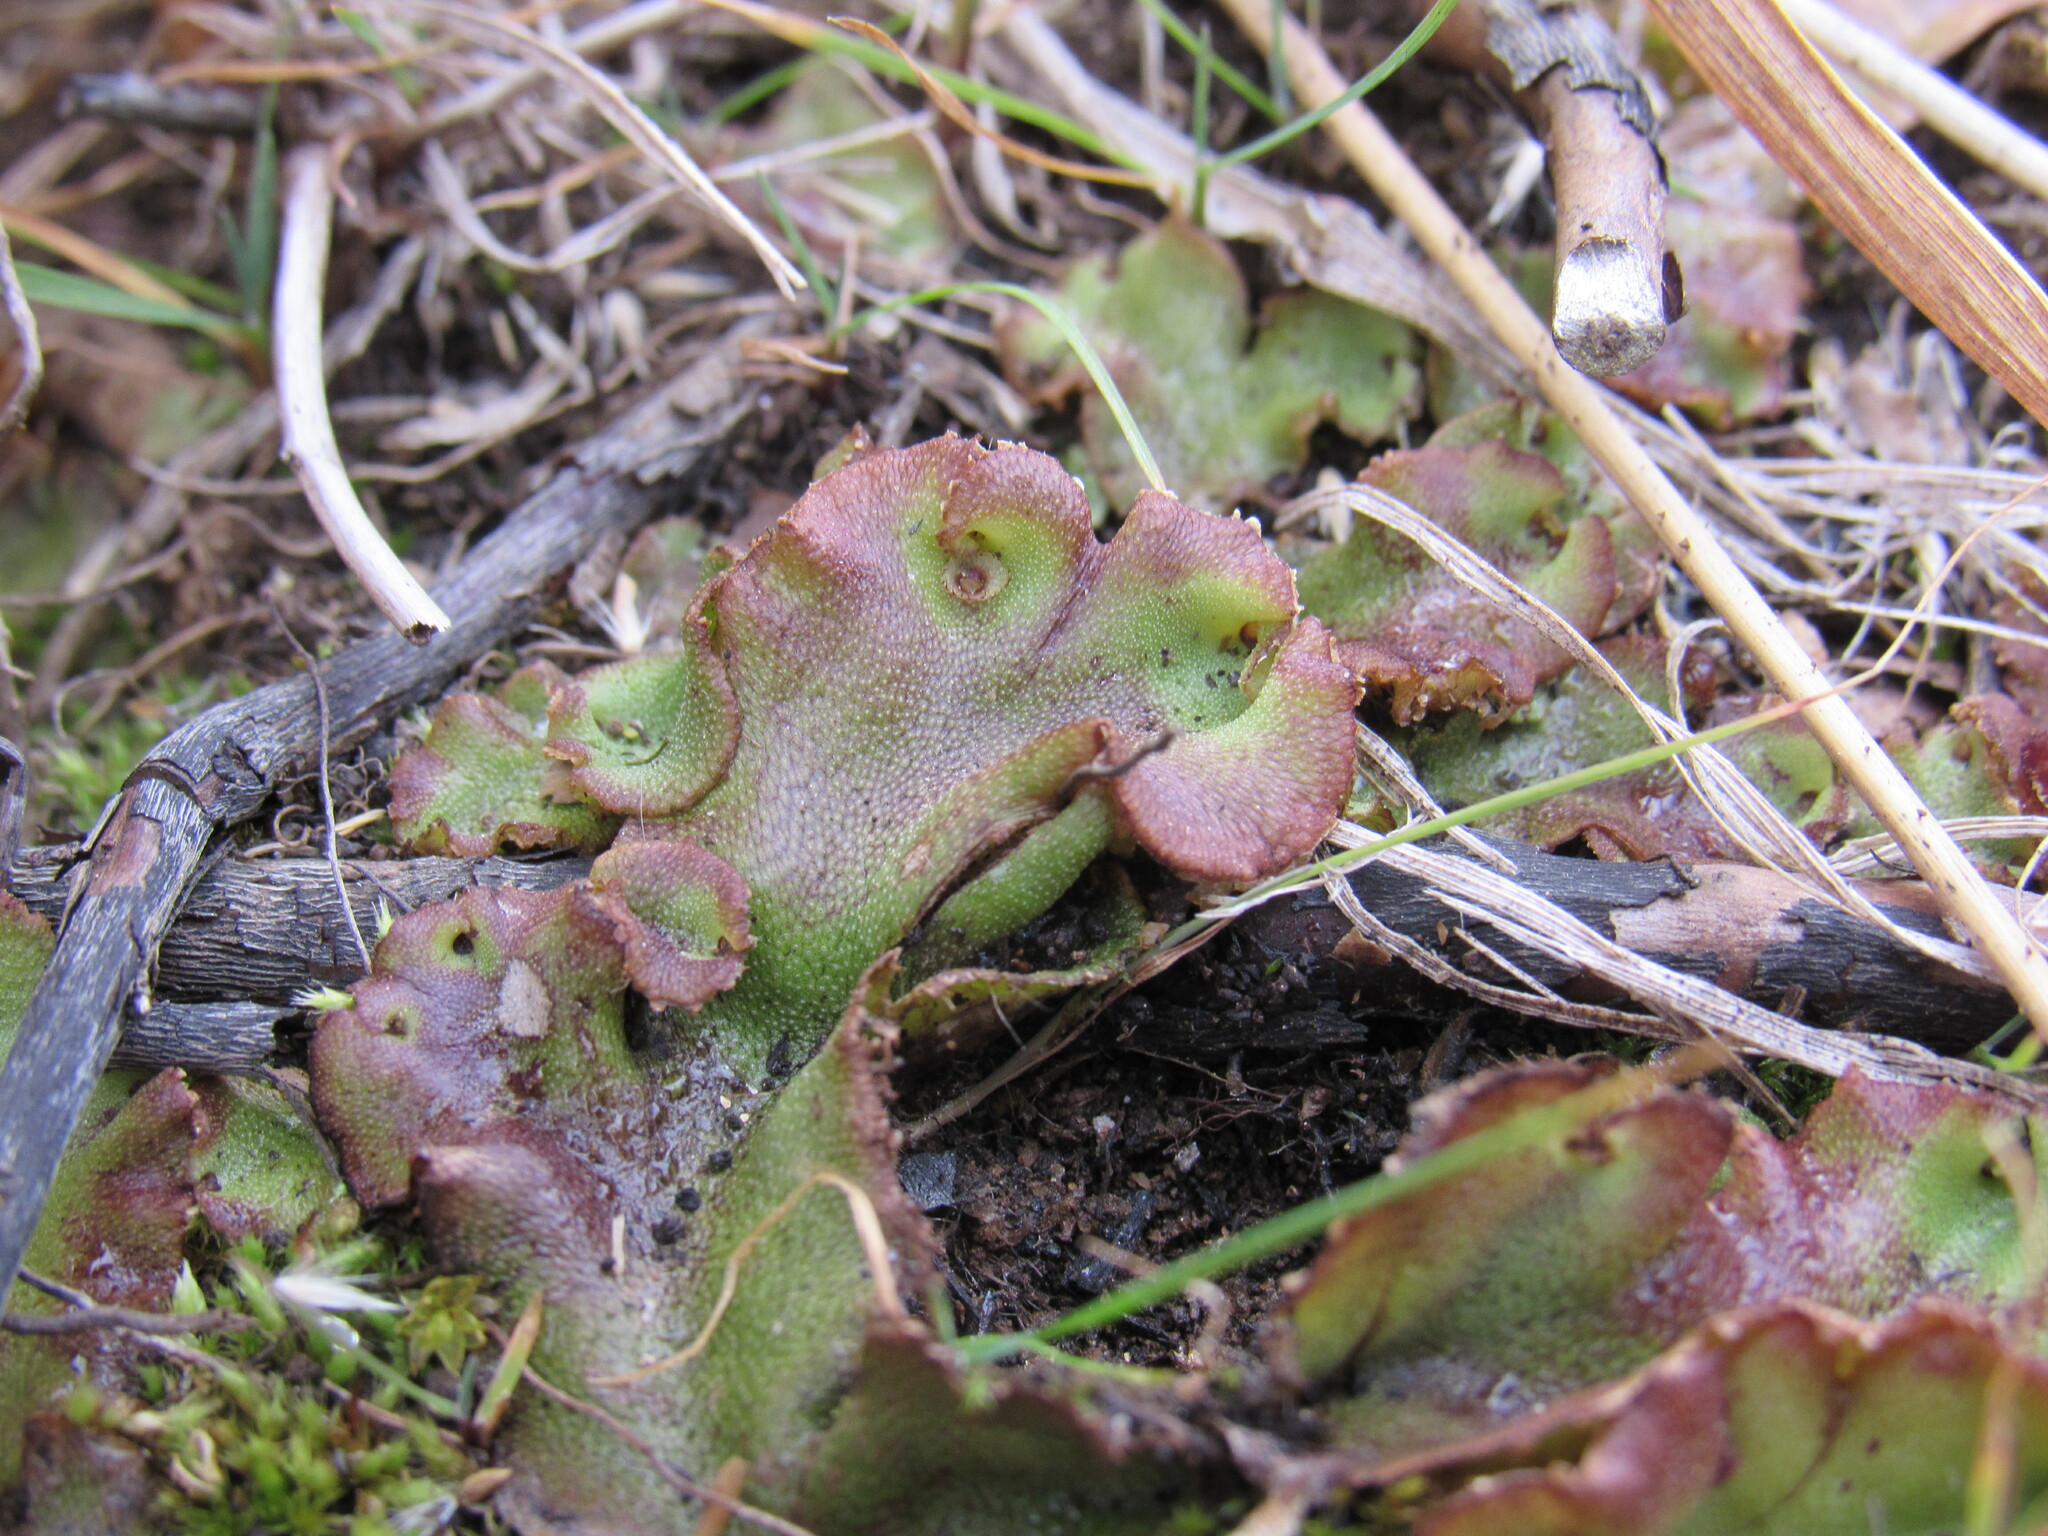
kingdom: Plantae
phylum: Marchantiophyta
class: Marchantiopsida
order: Marchantiales
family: Marchantiaceae
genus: Marchantia
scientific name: Marchantia polymorpha
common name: Common liverwort
